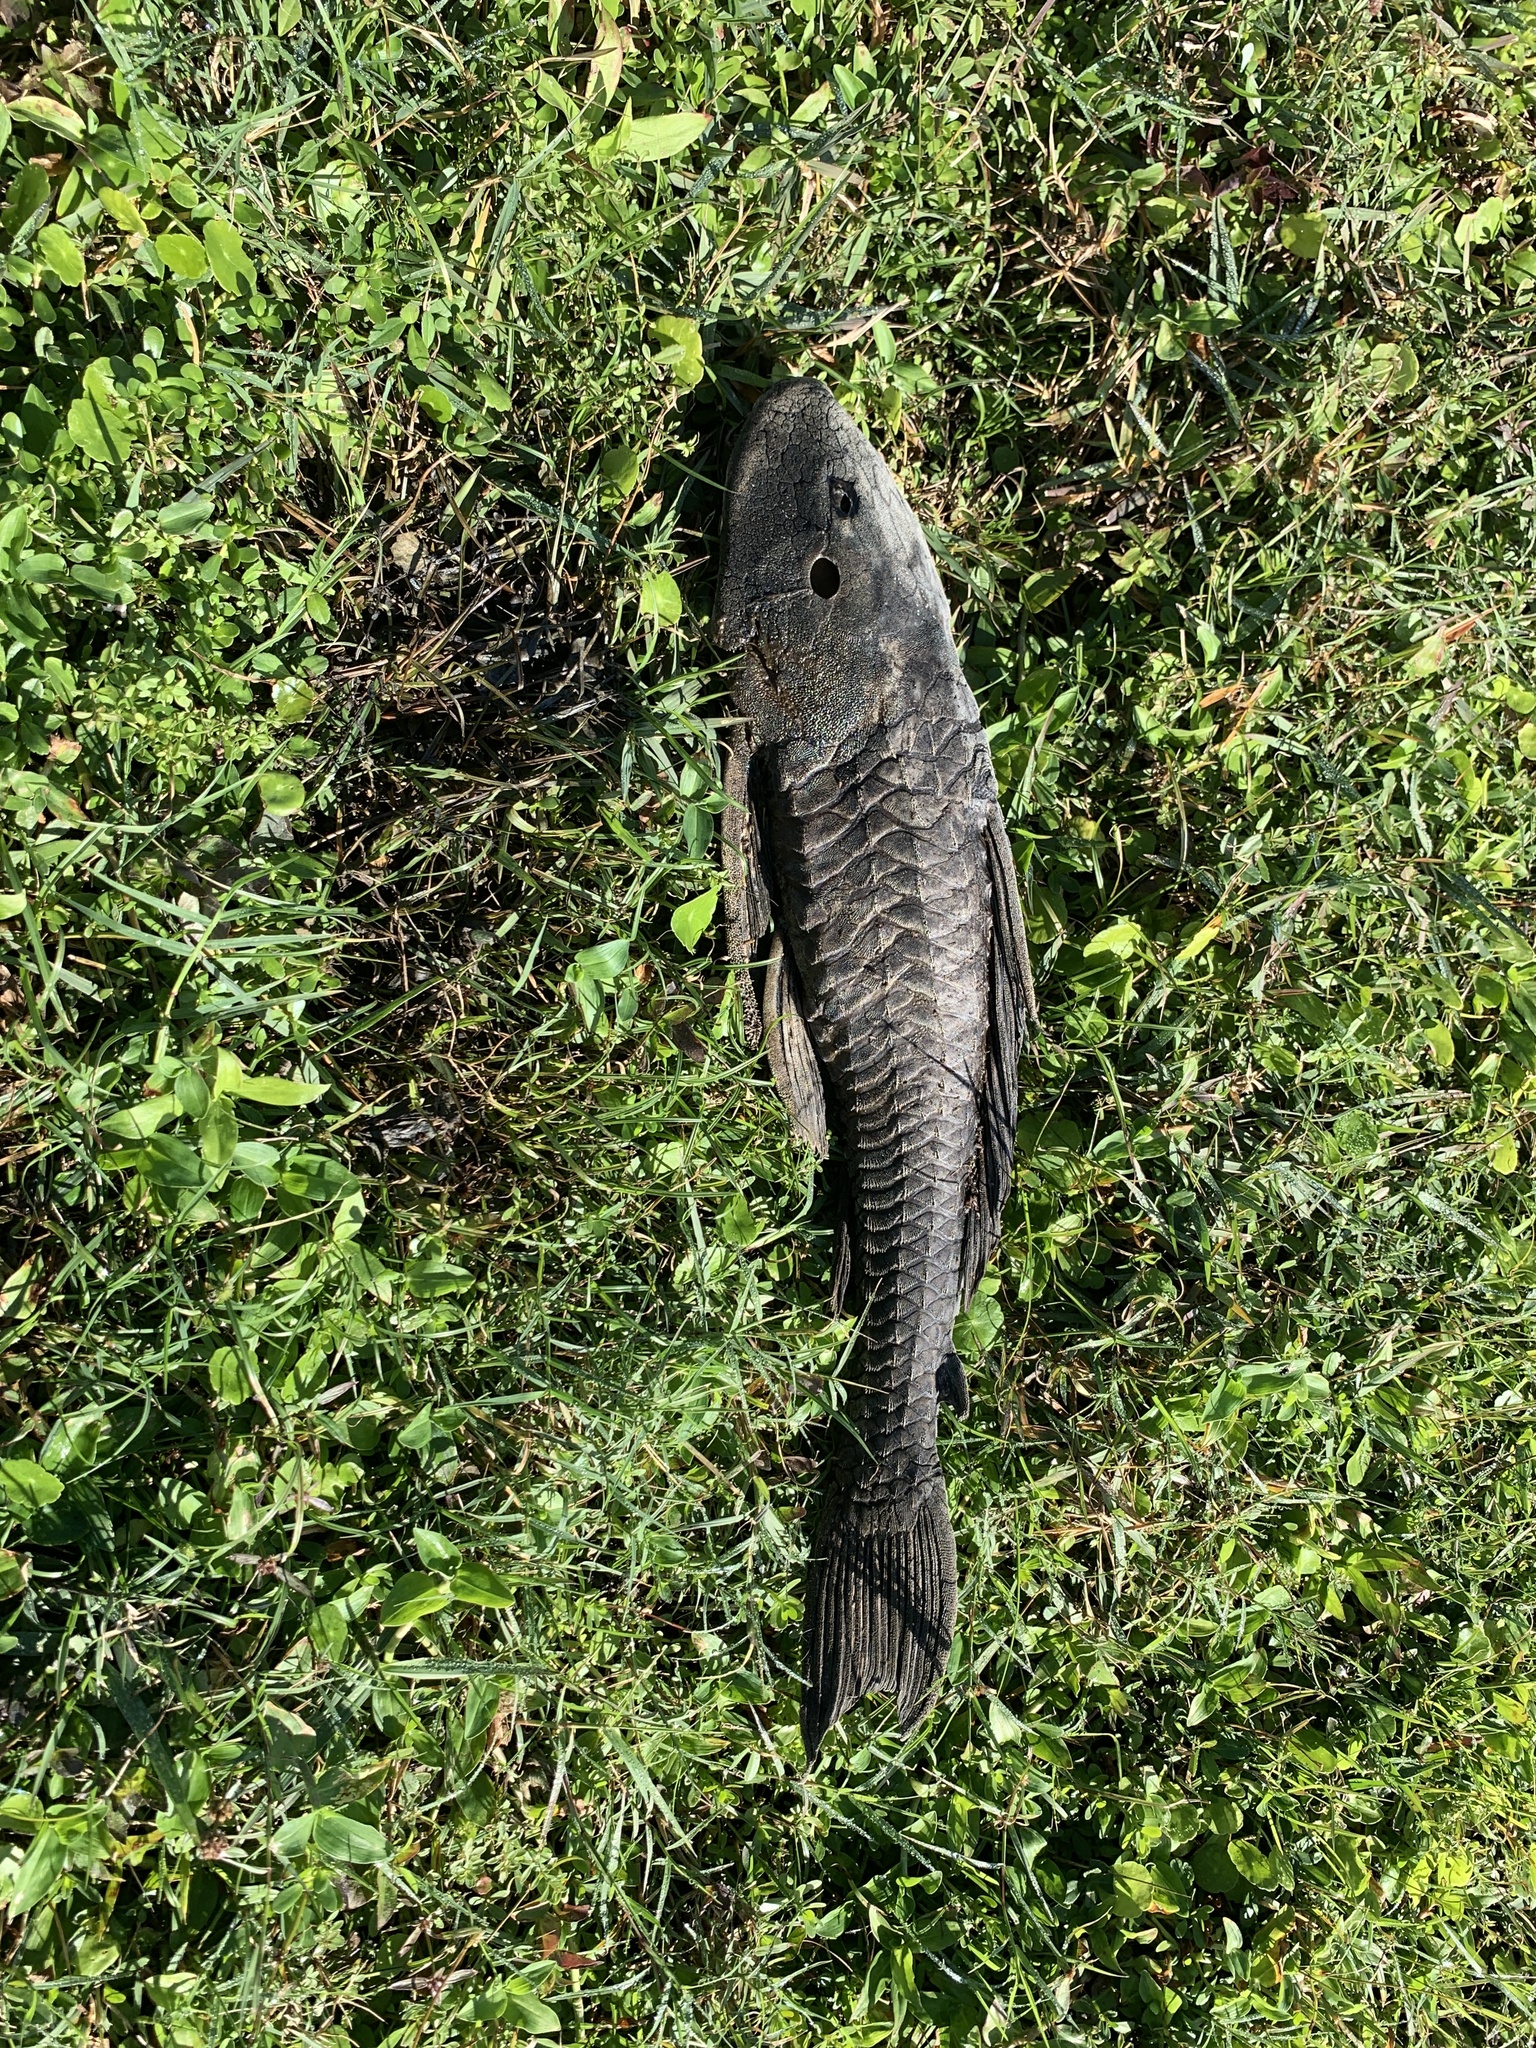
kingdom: Animalia
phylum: Chordata
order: Siluriformes
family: Loricariidae
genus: Pterygoplichthys
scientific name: Pterygoplichthys
